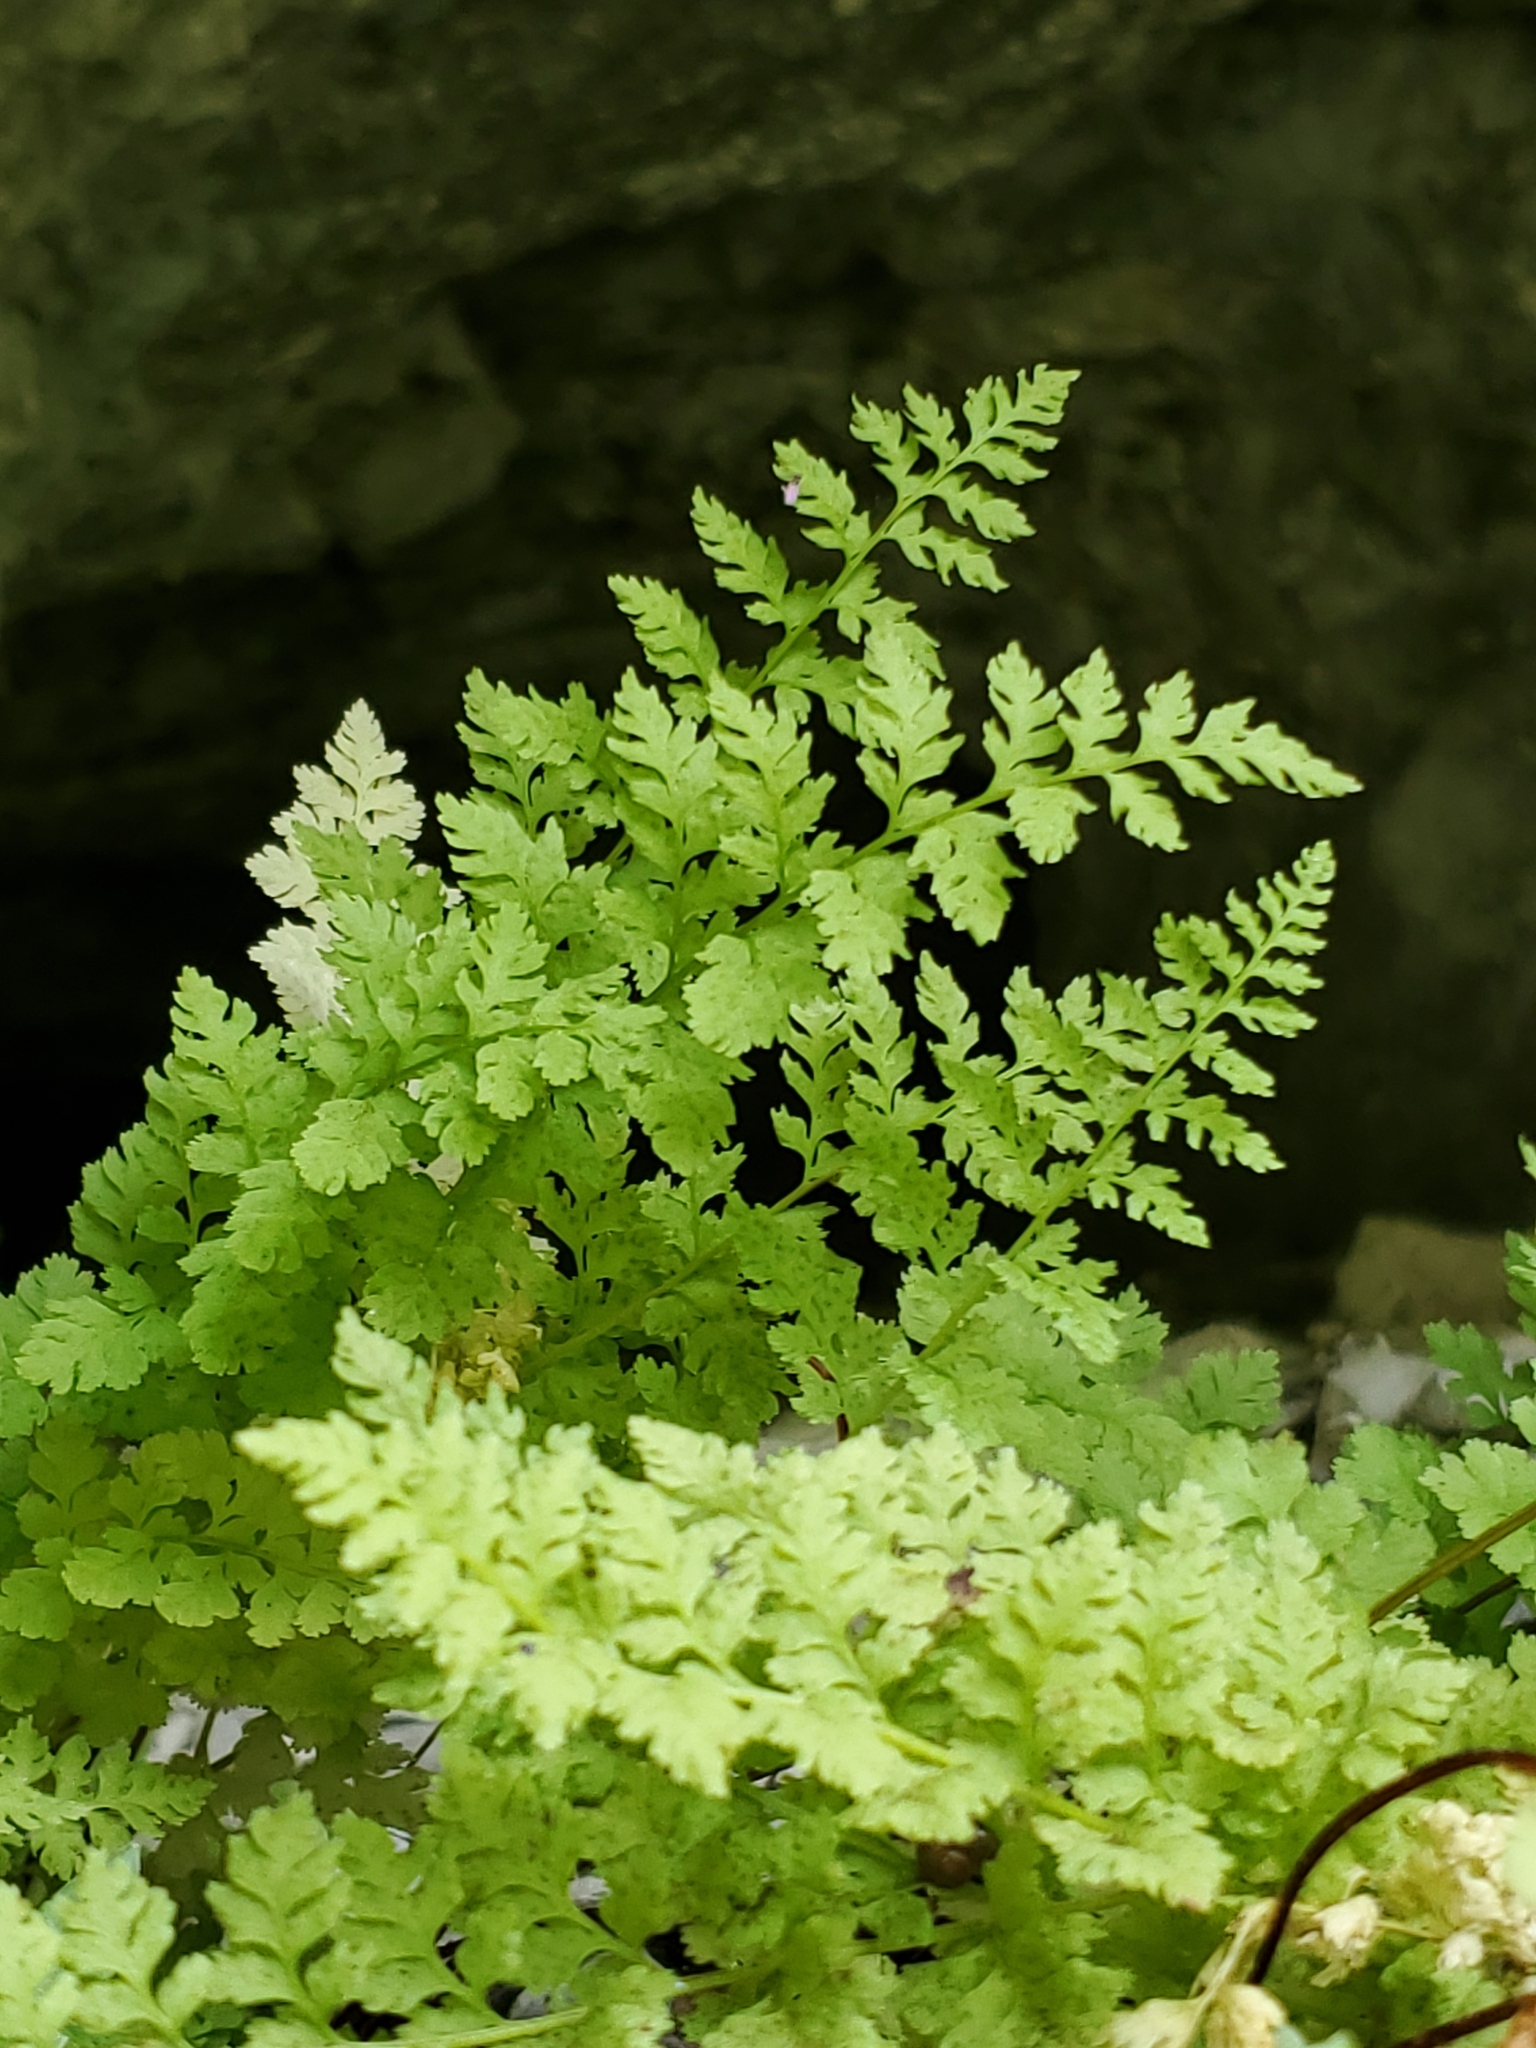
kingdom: Plantae
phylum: Tracheophyta
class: Polypodiopsida
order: Polypodiales
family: Cystopteridaceae
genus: Cystopteris
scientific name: Cystopteris fragilis
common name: Brittle bladder fern
